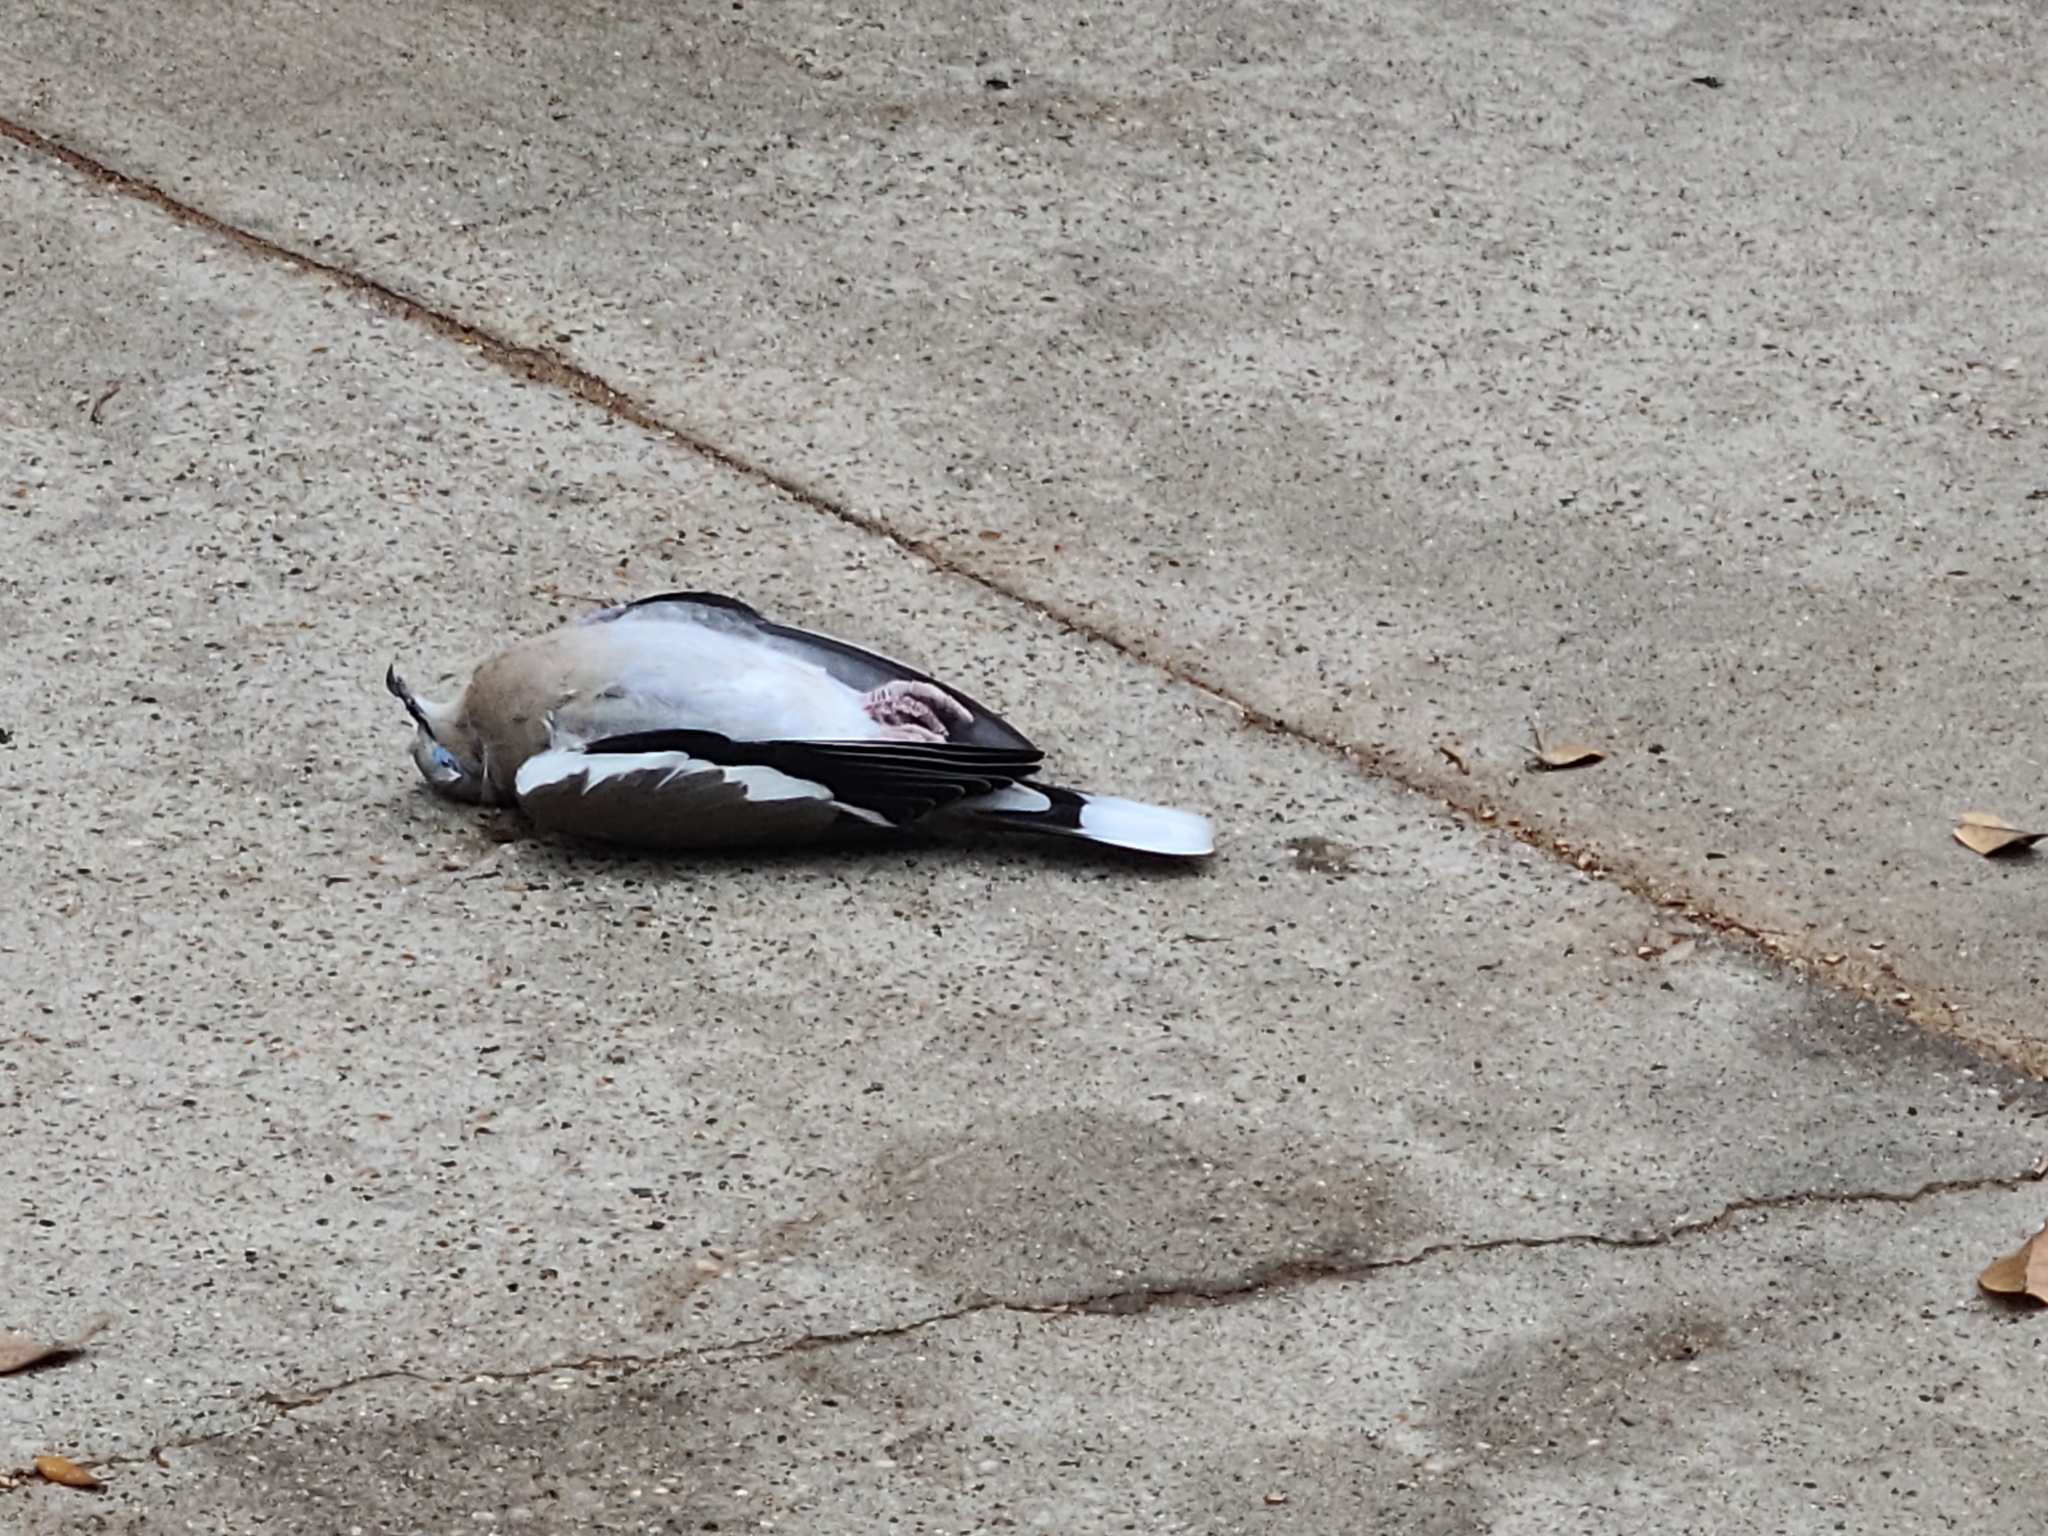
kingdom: Animalia
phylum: Chordata
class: Aves
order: Columbiformes
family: Columbidae
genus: Zenaida
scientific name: Zenaida asiatica
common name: White-winged dove
